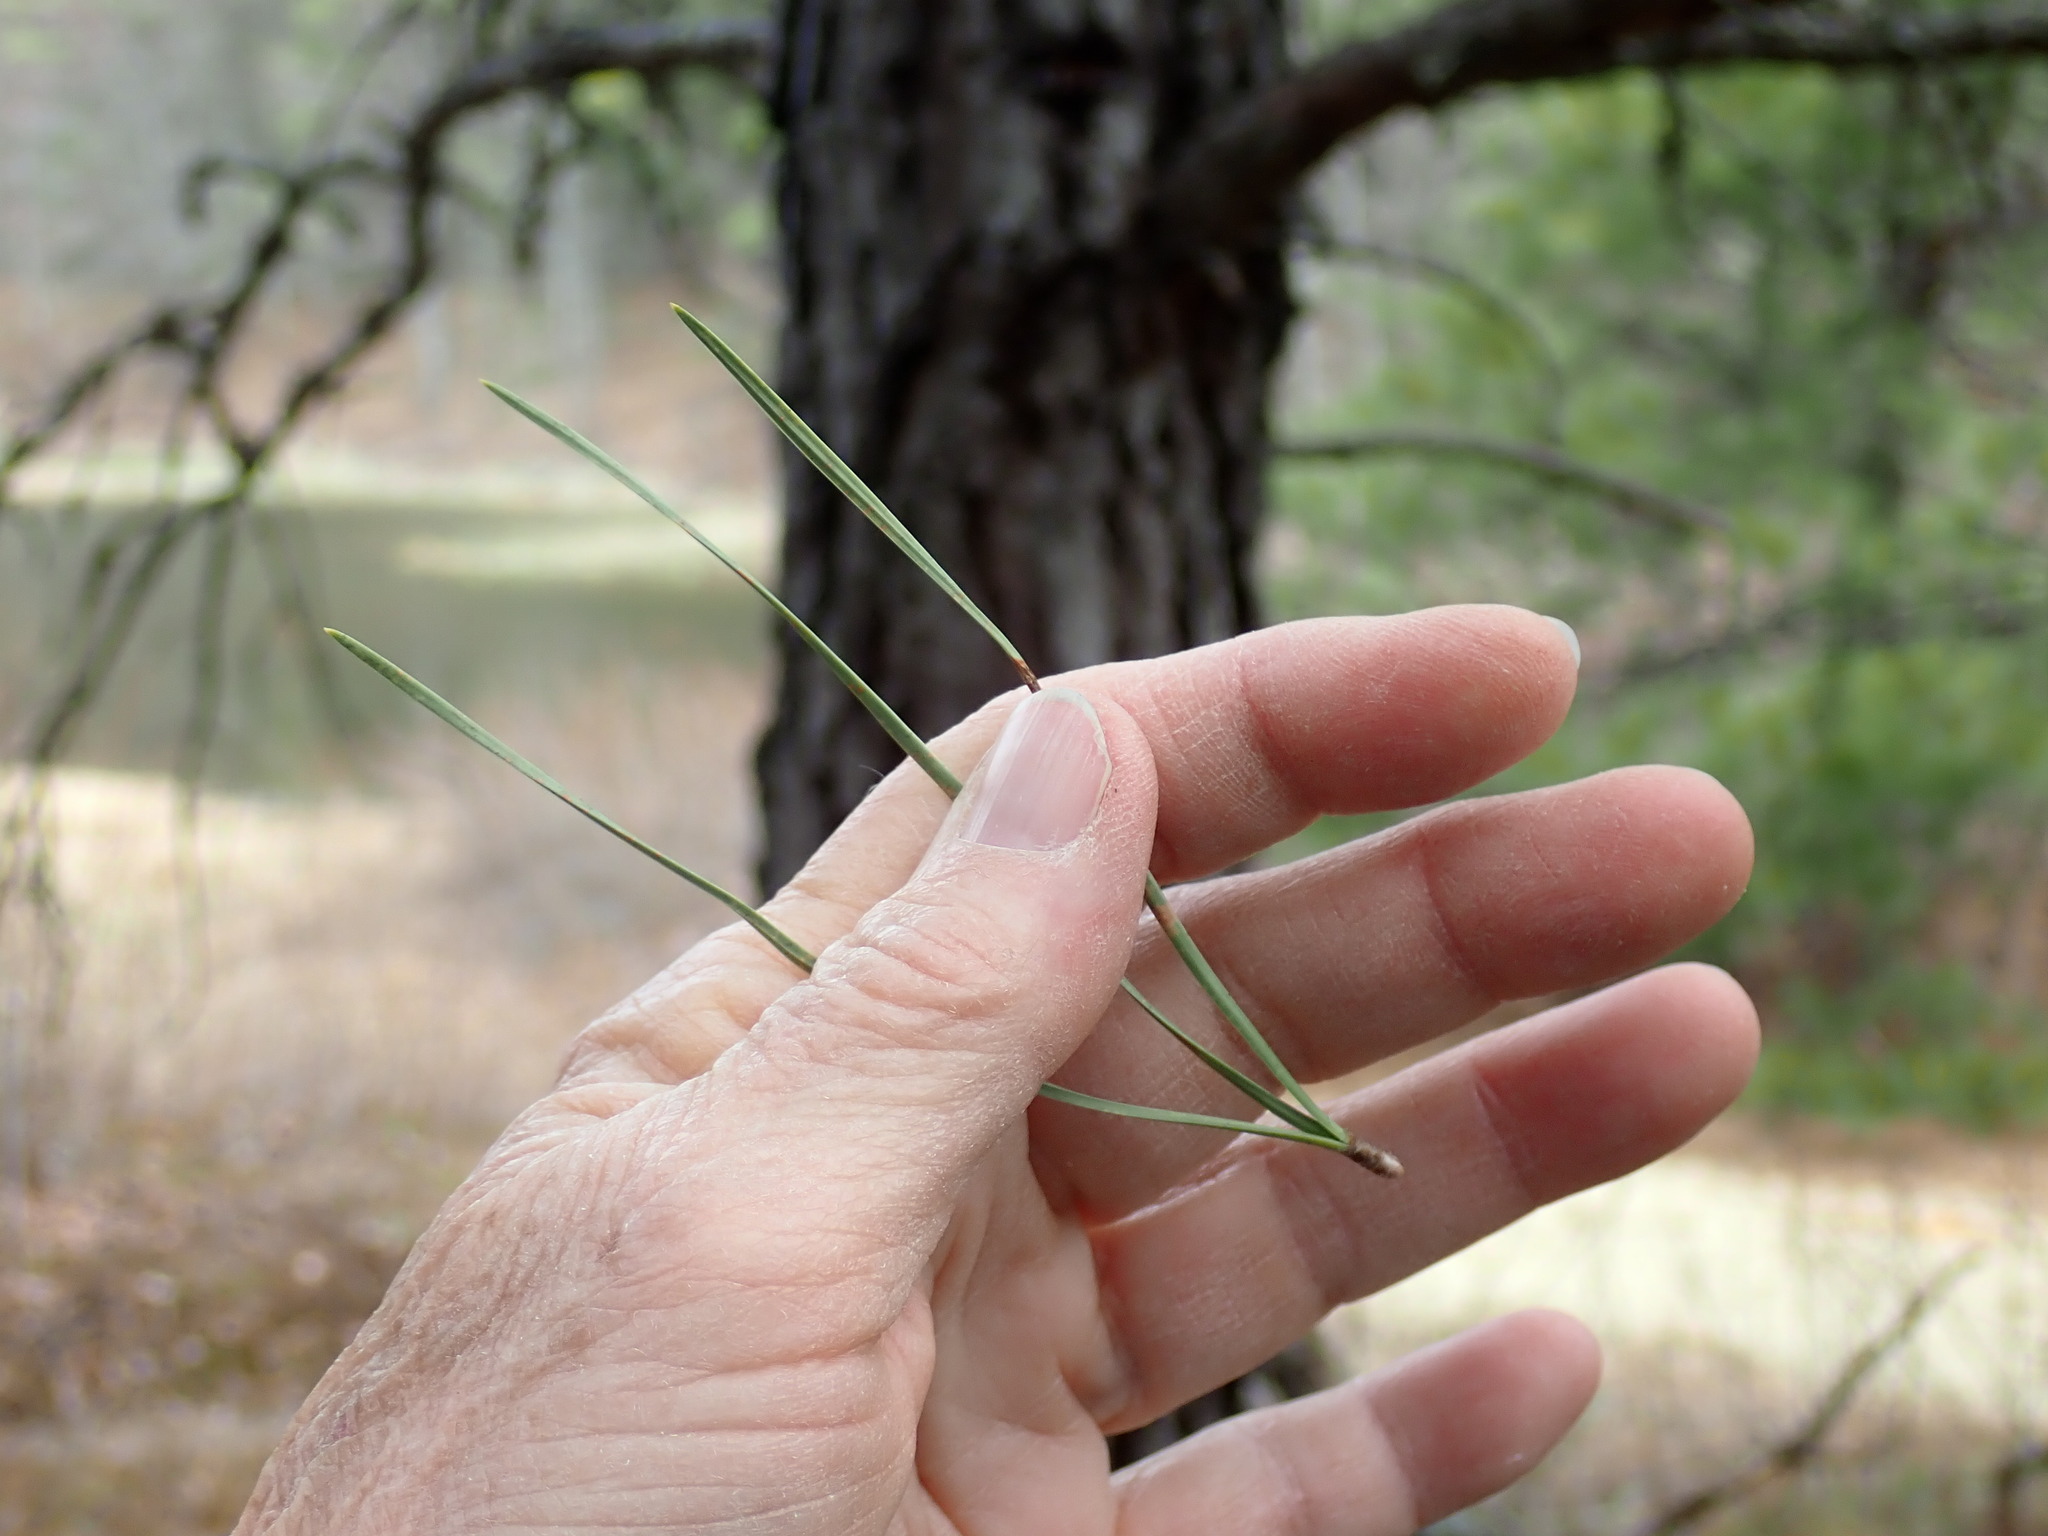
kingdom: Plantae
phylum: Tracheophyta
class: Pinopsida
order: Pinales
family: Pinaceae
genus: Pinus
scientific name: Pinus rigida
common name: Pitch pine
